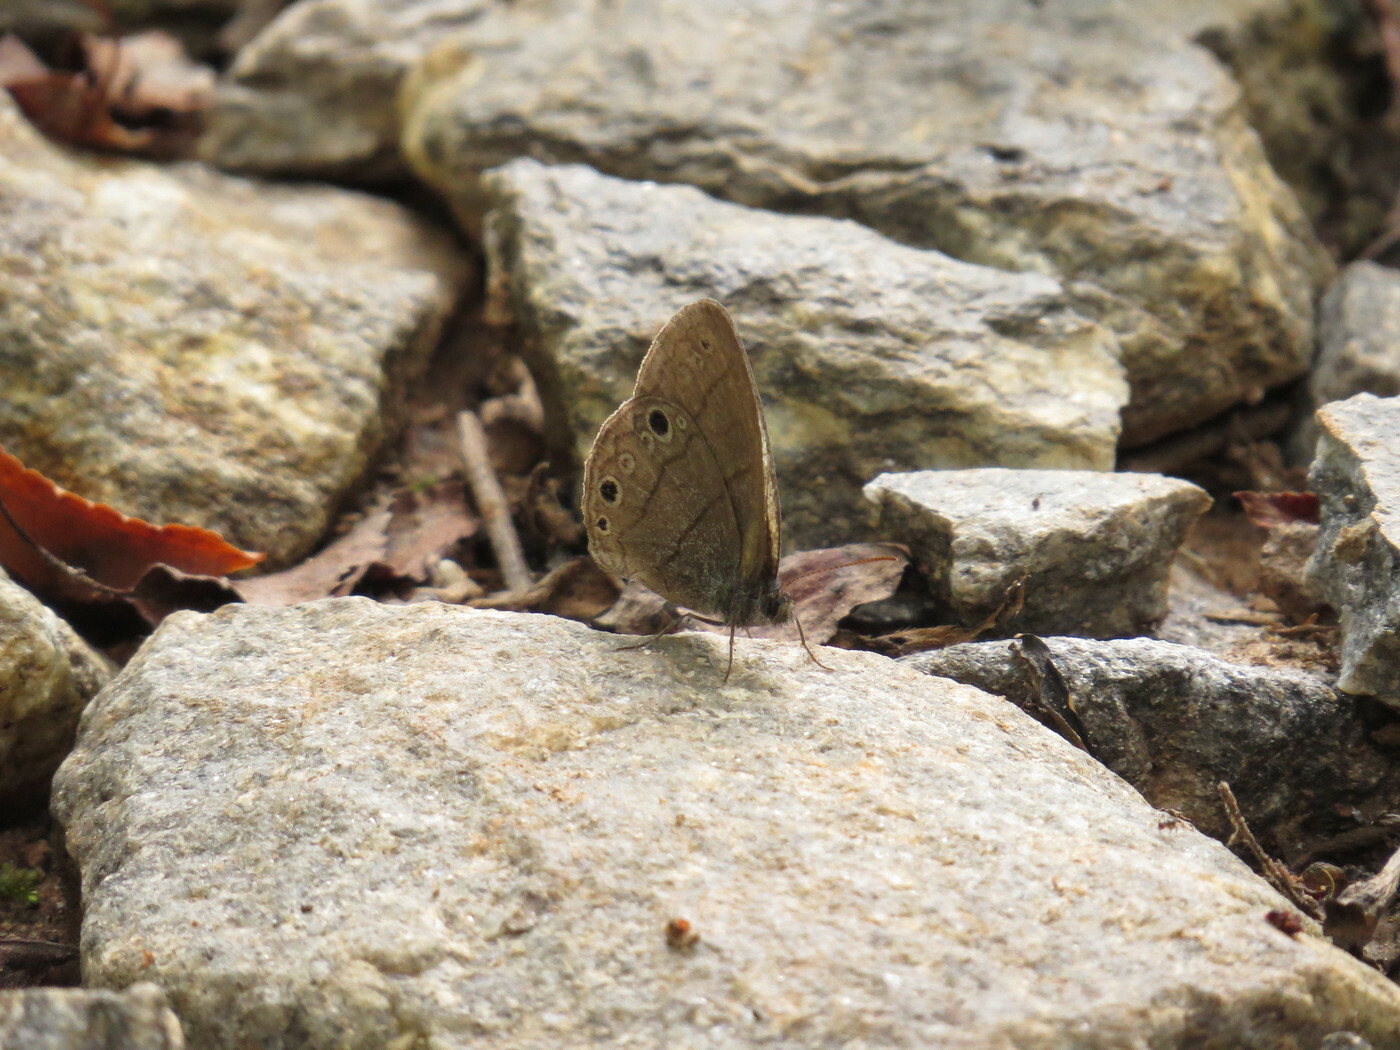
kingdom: Animalia
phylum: Arthropoda
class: Insecta
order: Lepidoptera
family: Nymphalidae
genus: Hermeuptychia
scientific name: Hermeuptychia hermes
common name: Hermes satyr
